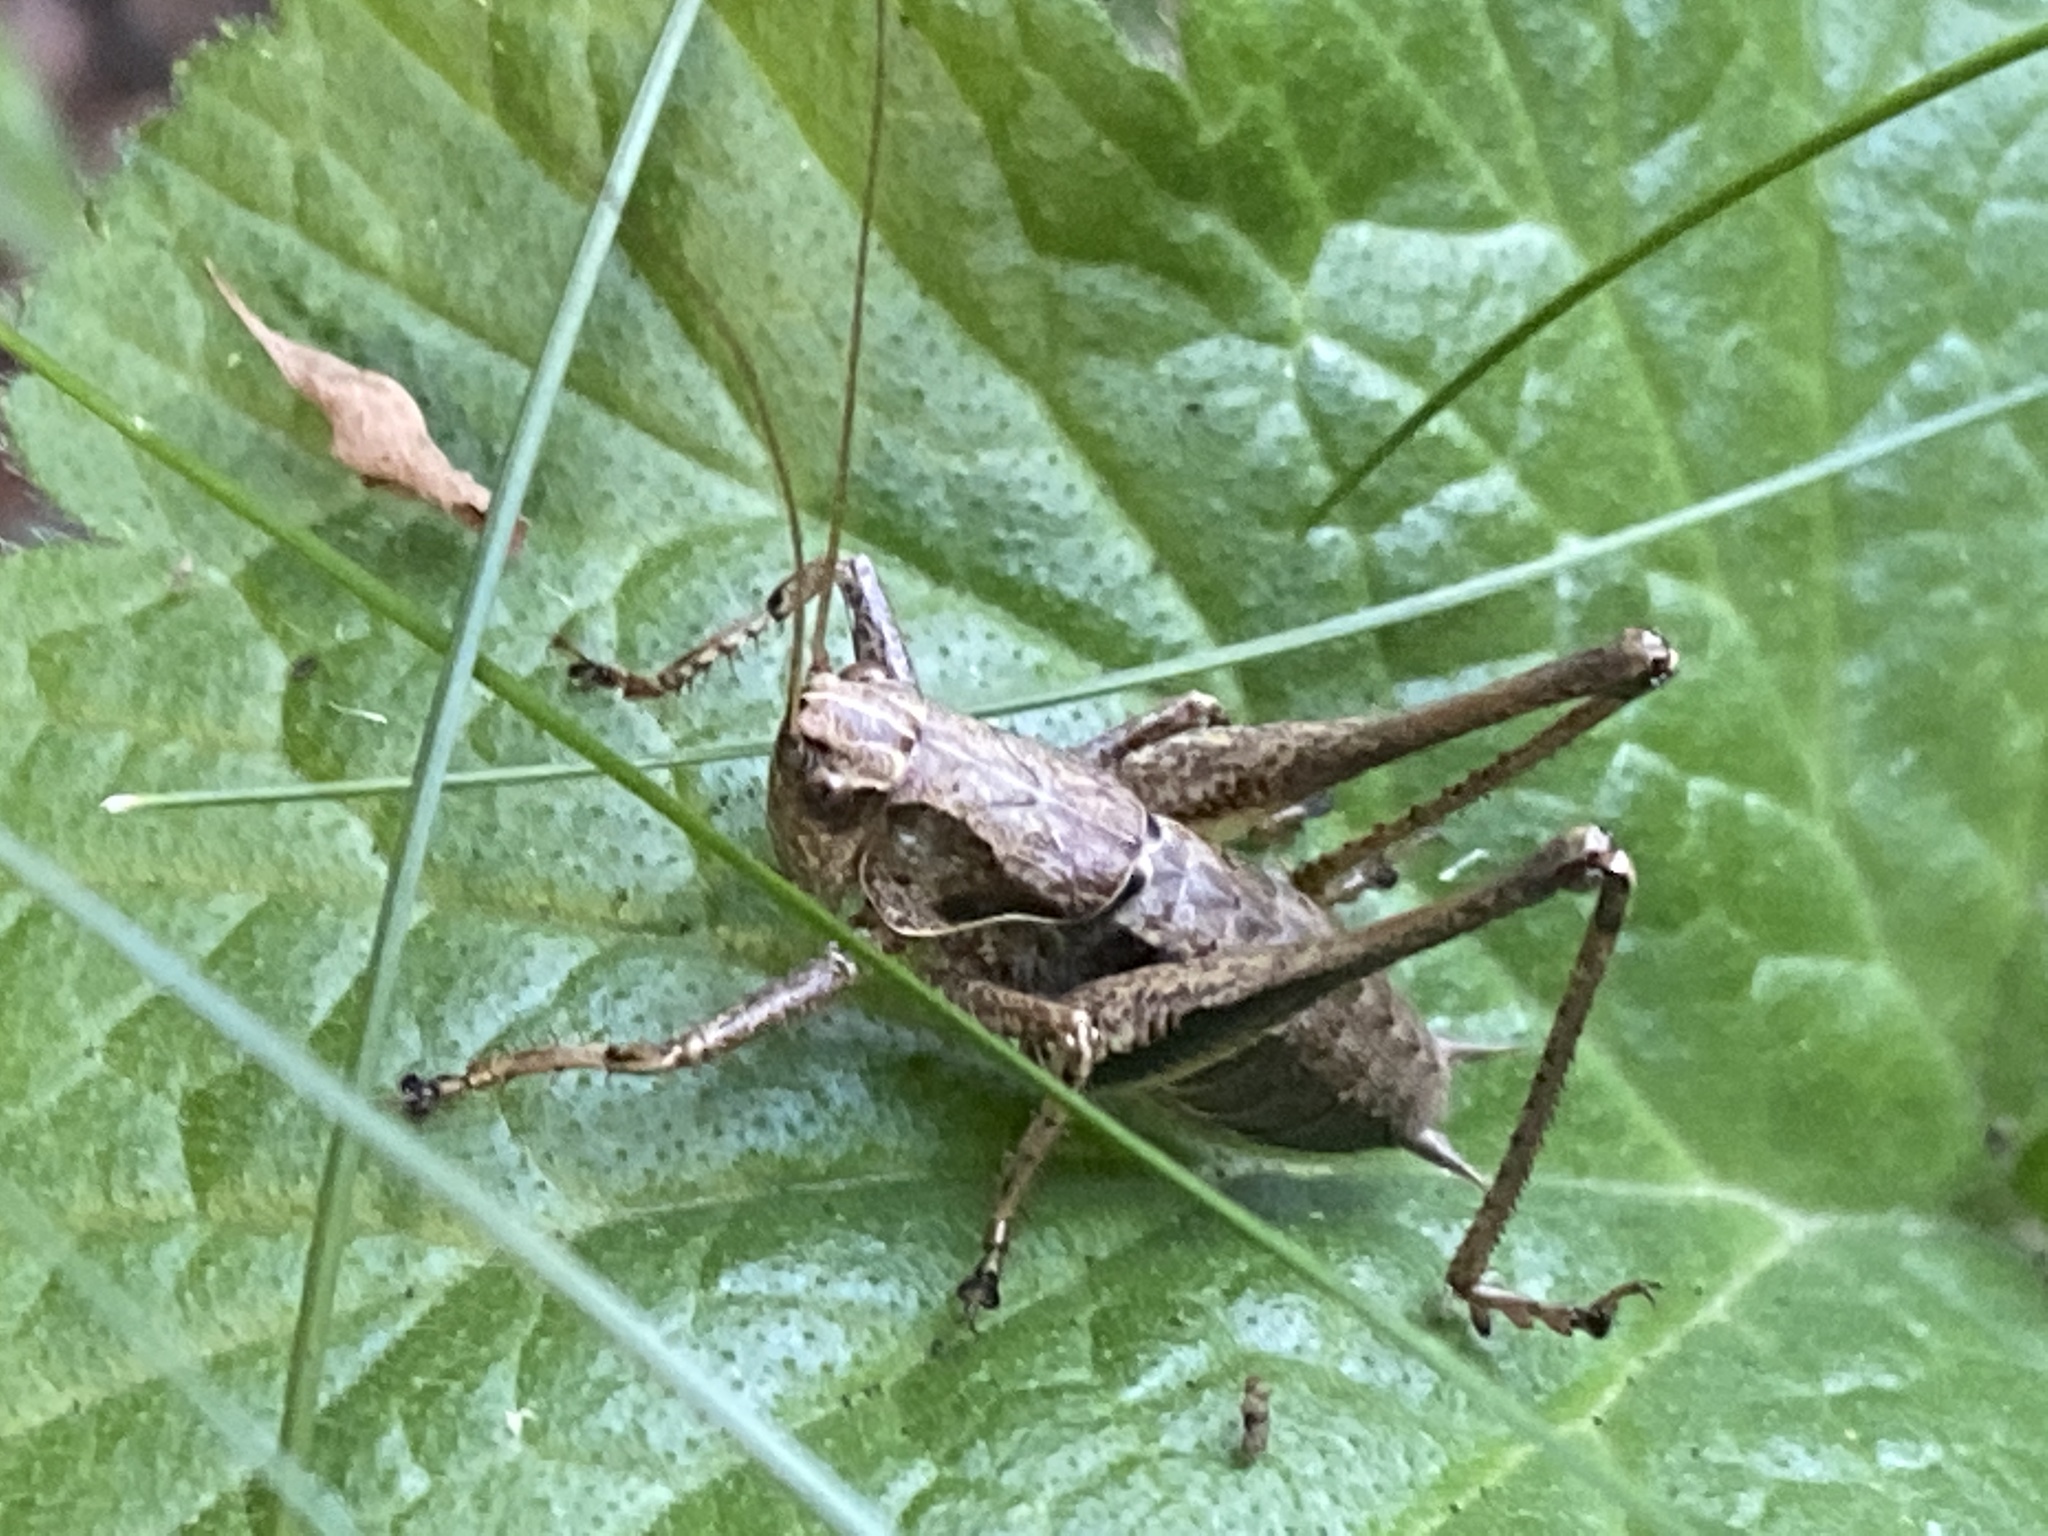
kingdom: Animalia
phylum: Arthropoda
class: Insecta
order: Orthoptera
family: Tettigoniidae
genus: Pholidoptera
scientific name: Pholidoptera griseoaptera
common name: Dark bush-cricket
